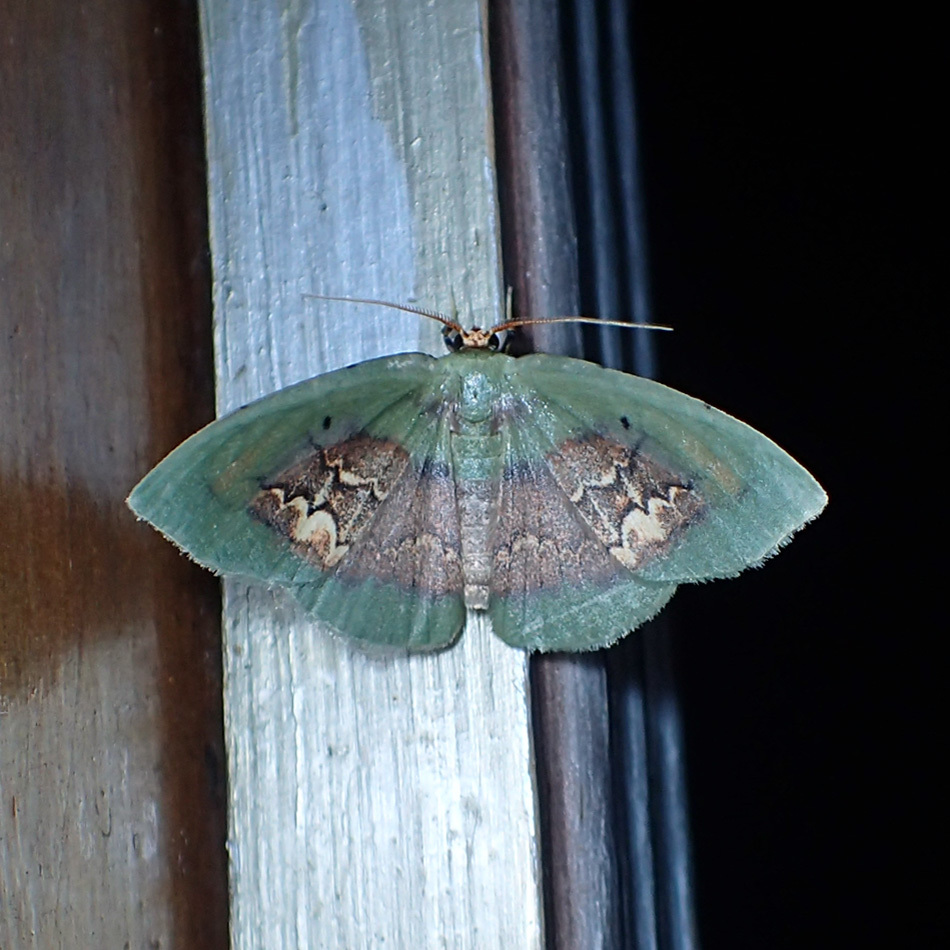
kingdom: Animalia
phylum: Arthropoda
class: Insecta
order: Lepidoptera
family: Geometridae
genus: Pyrochlora
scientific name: Pyrochlora motilonia
